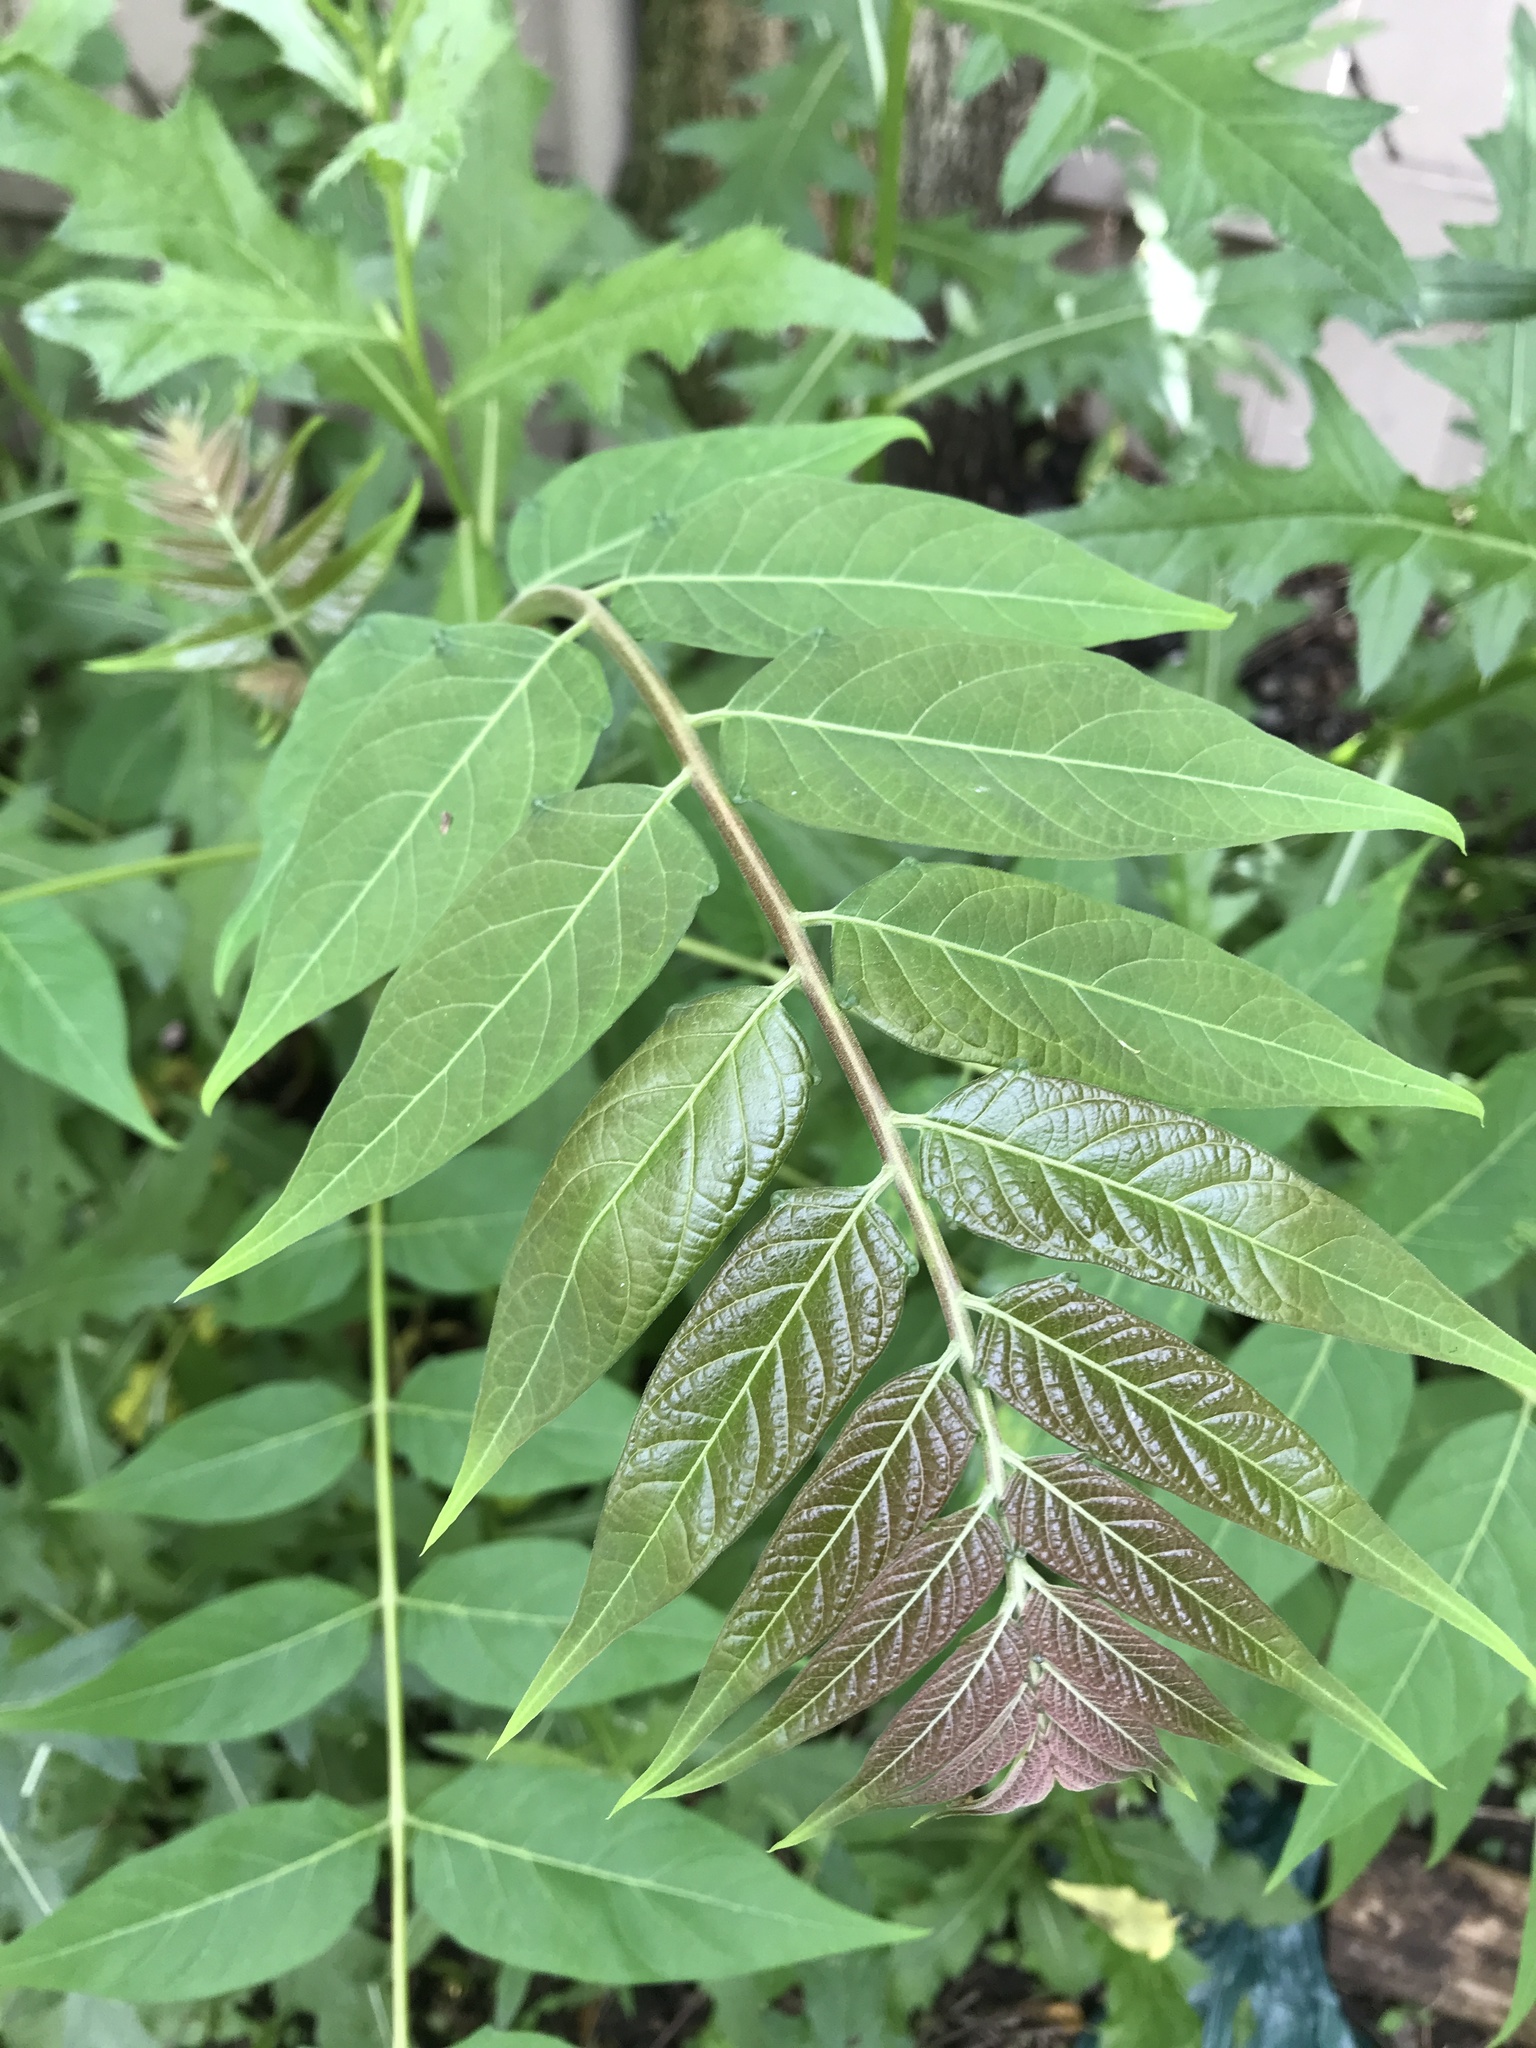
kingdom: Plantae
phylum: Tracheophyta
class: Magnoliopsida
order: Sapindales
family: Simaroubaceae
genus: Ailanthus
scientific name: Ailanthus altissima
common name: Tree-of-heaven
